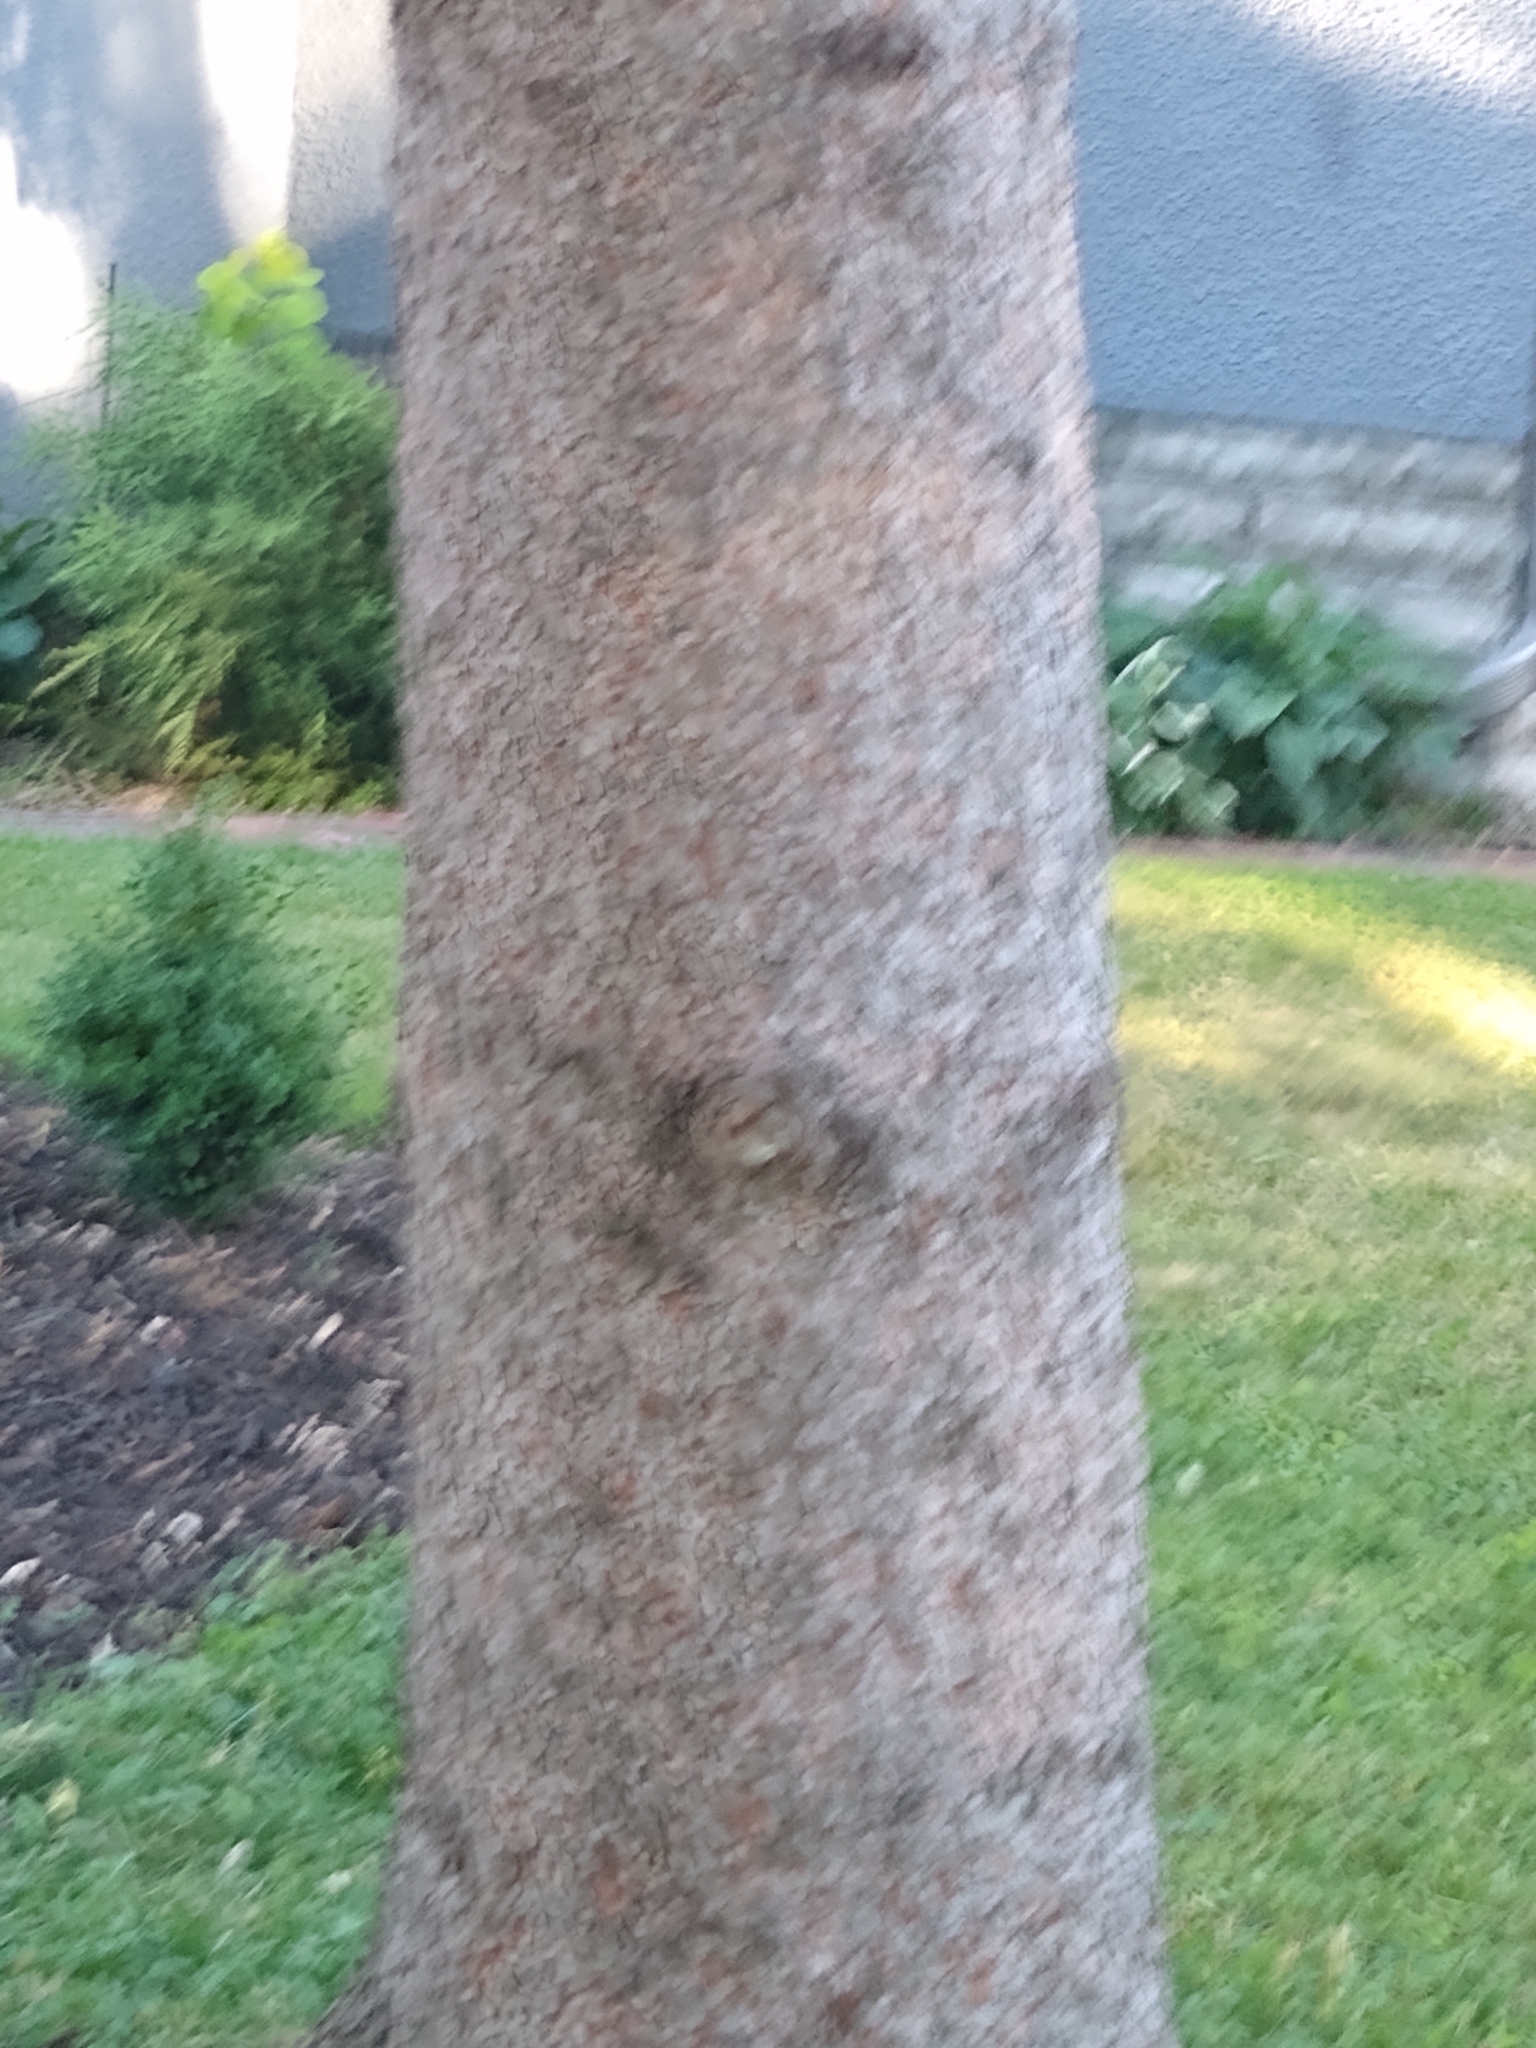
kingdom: Plantae
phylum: Tracheophyta
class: Pinopsida
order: Pinales
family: Pinaceae
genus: Larix
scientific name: Larix laricina
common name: American larch
